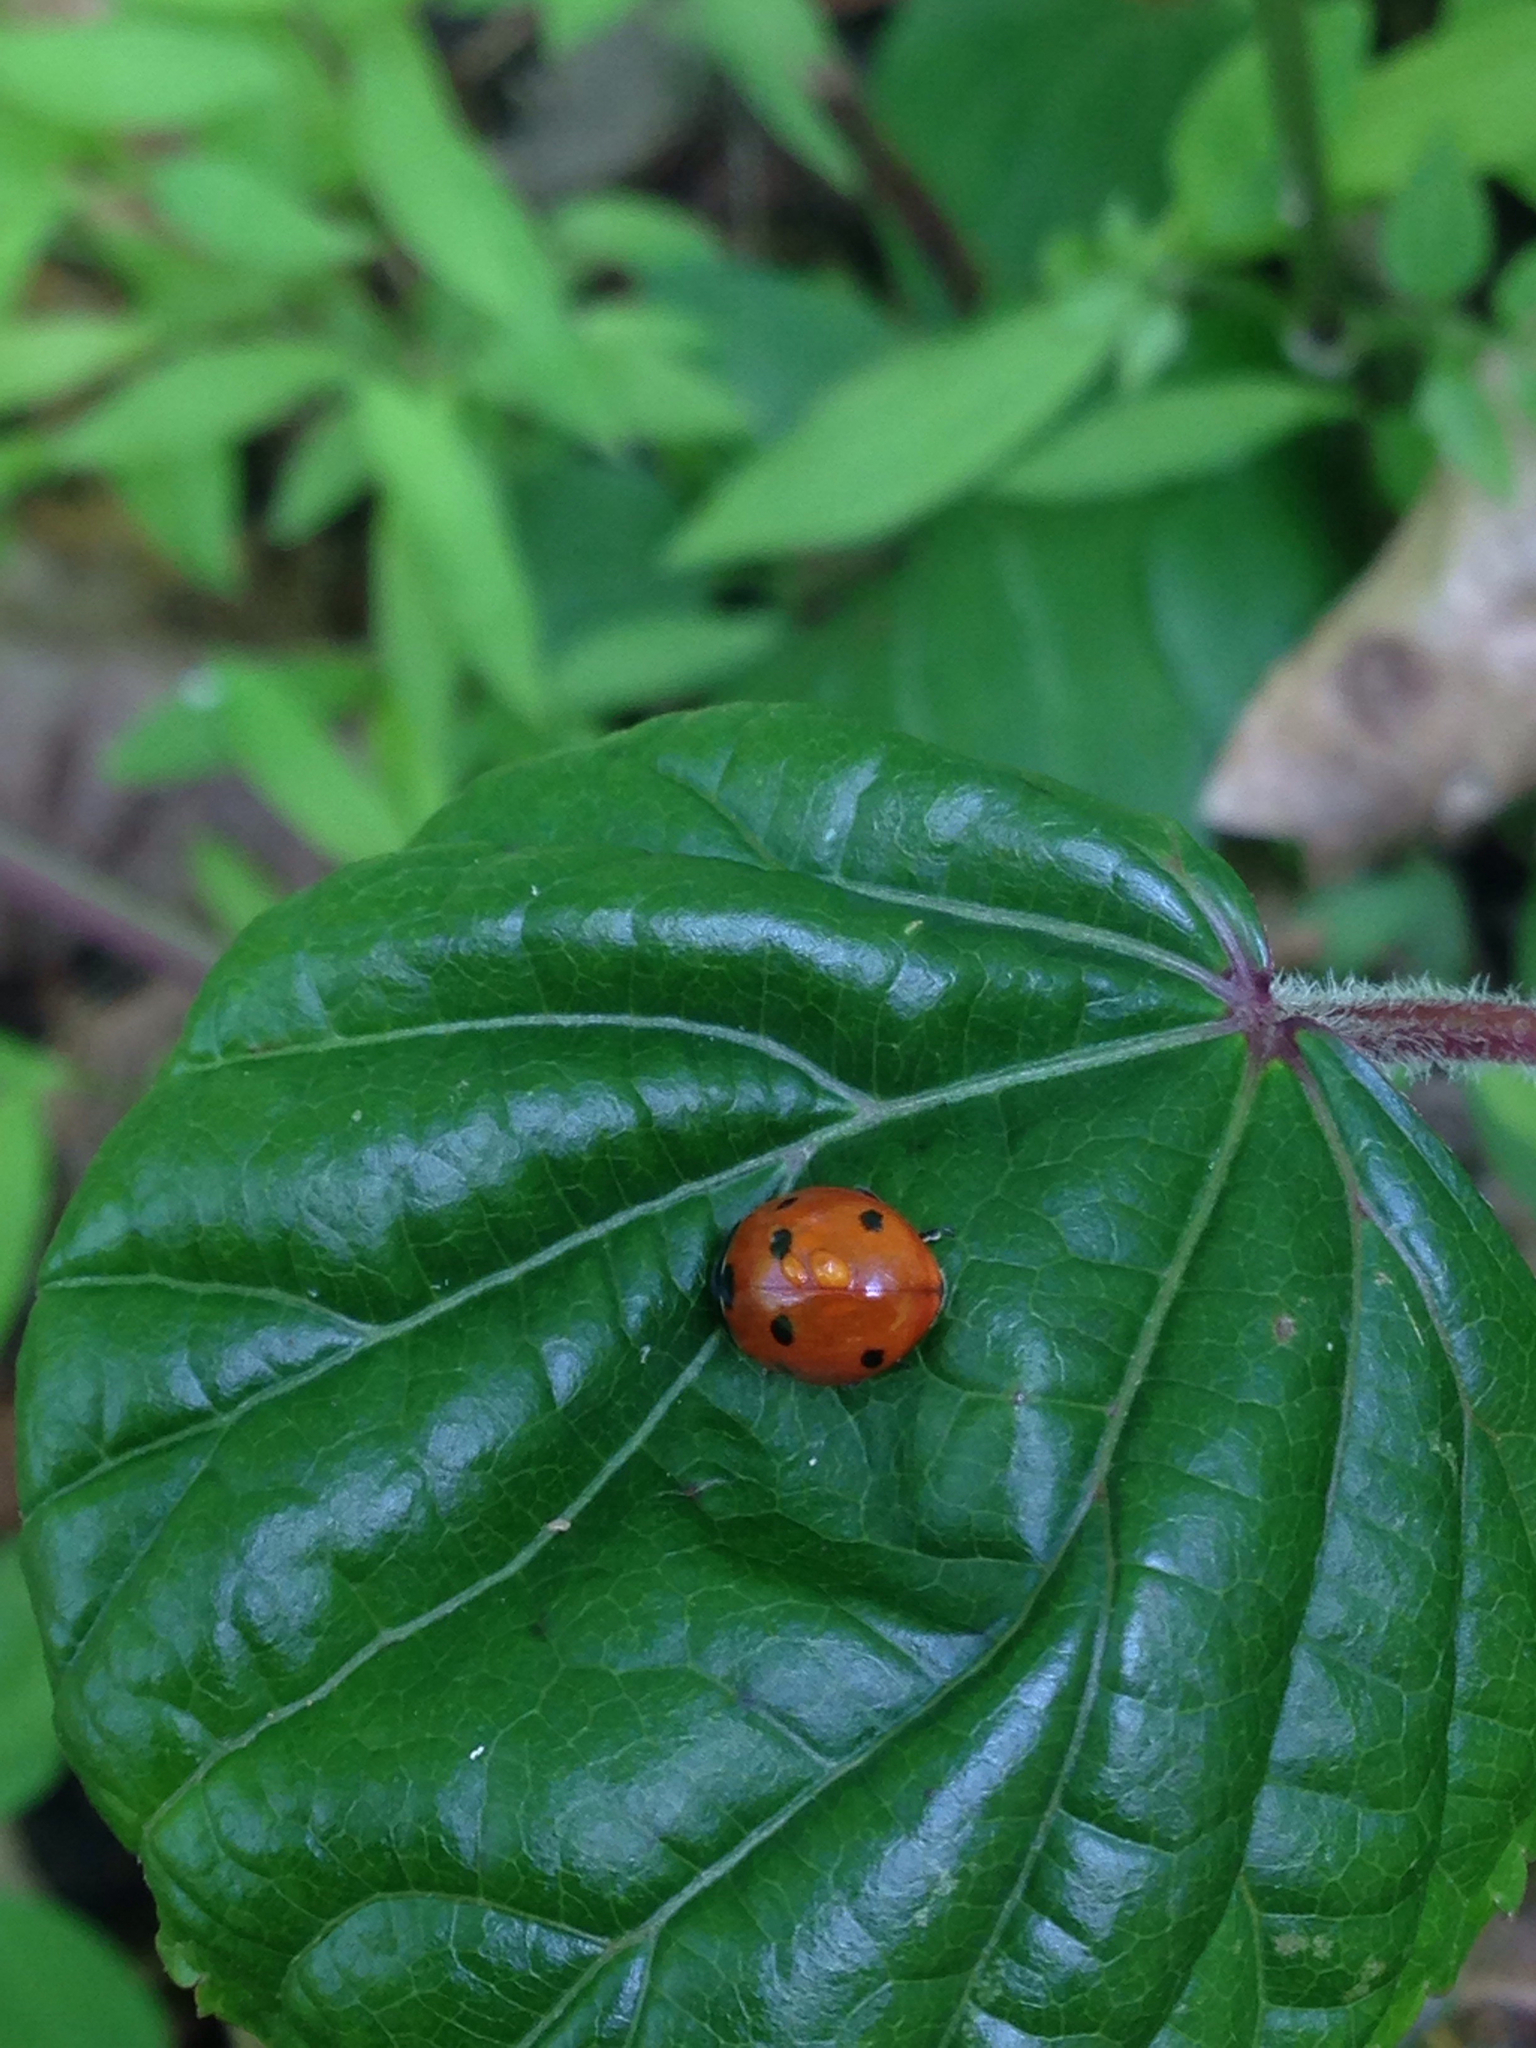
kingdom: Animalia
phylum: Arthropoda
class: Insecta
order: Coleoptera
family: Coccinellidae
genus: Coccinella
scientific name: Coccinella septempunctata
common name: Sevenspotted lady beetle
